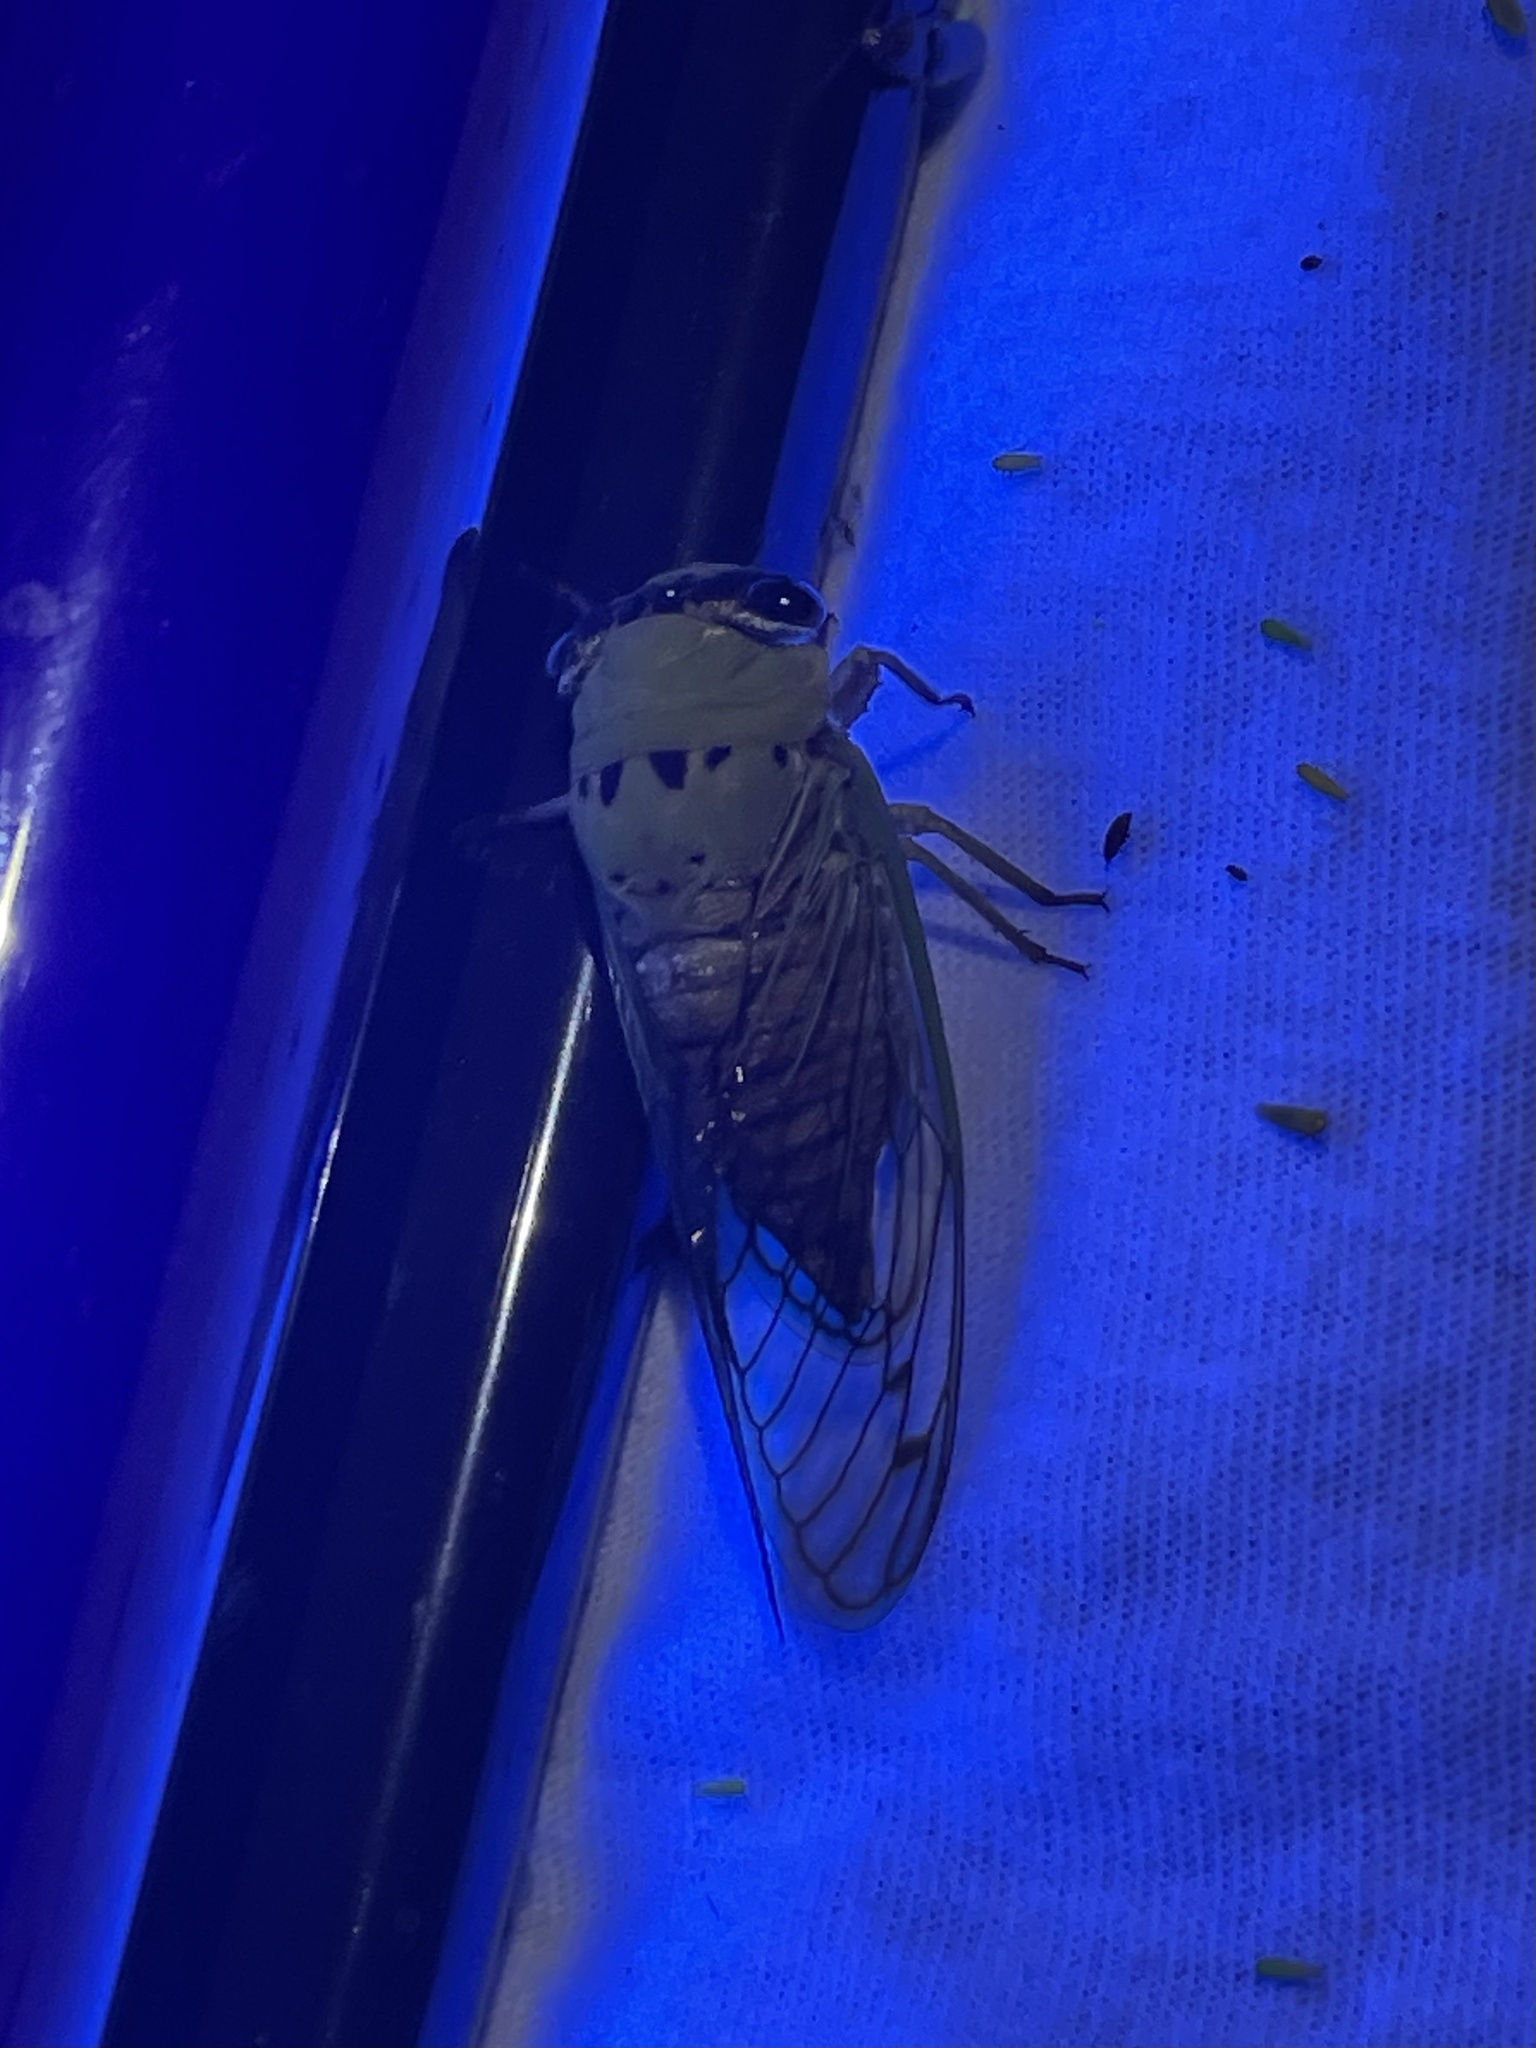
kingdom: Animalia
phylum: Arthropoda
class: Insecta
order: Hemiptera
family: Cicadidae
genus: Neotibicen
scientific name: Neotibicen superbus
